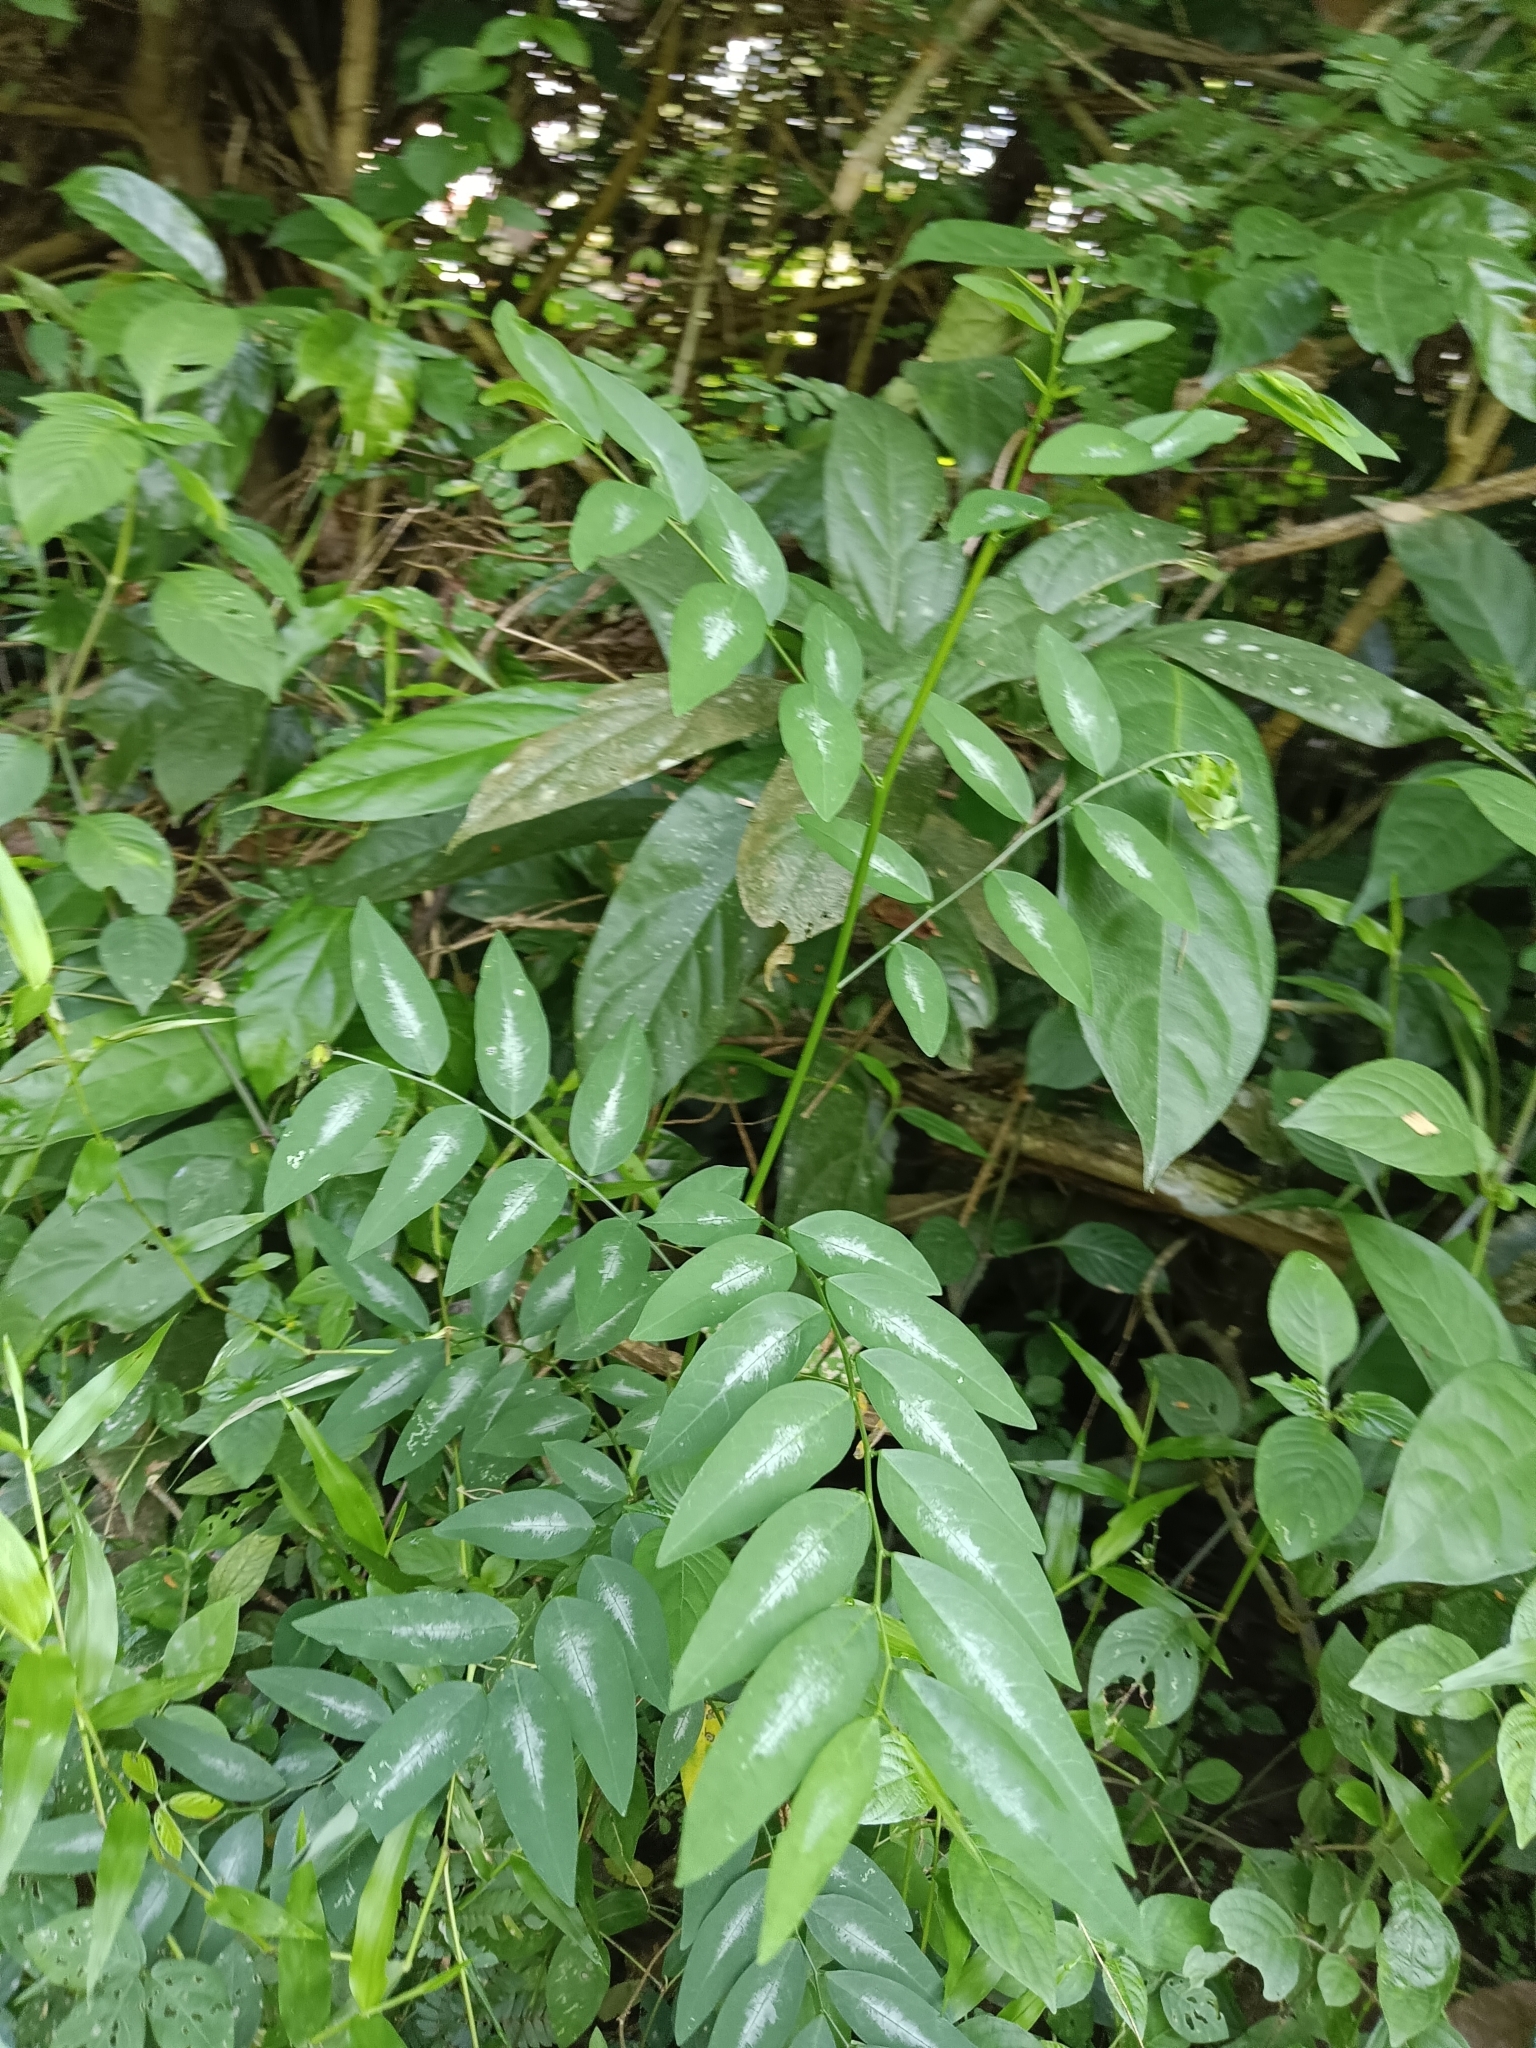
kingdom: Plantae
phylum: Tracheophyta
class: Magnoliopsida
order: Malpighiales
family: Phyllanthaceae
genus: Breynia
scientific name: Breynia androgyna
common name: Star gooseberry
